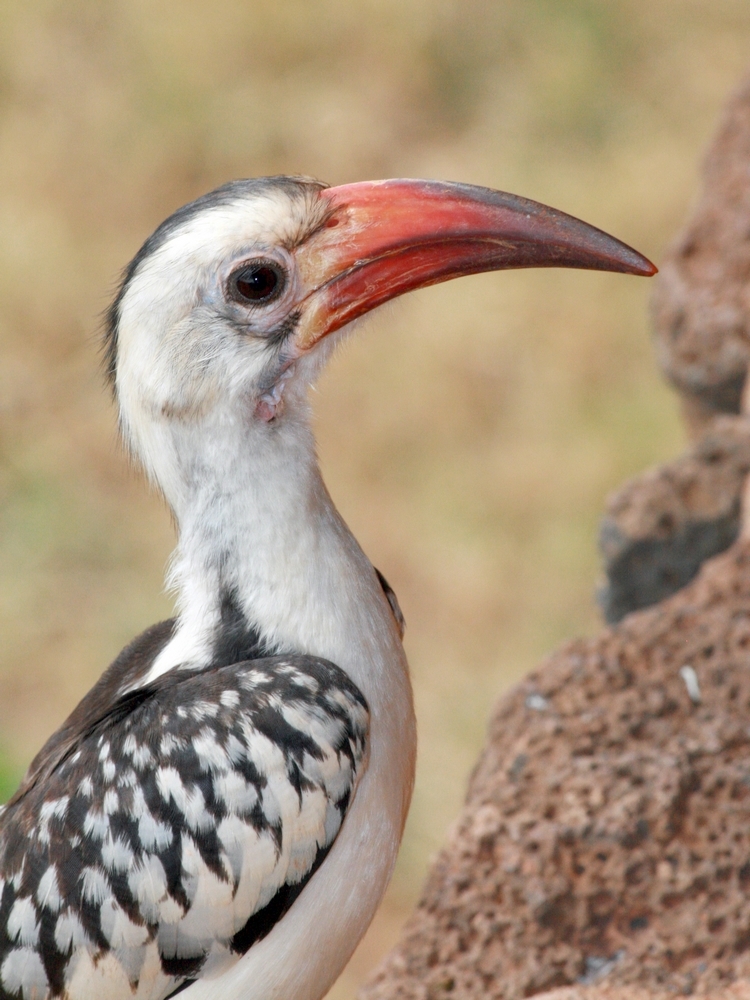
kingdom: Animalia
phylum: Chordata
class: Aves
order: Bucerotiformes
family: Bucerotidae
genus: Tockus
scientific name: Tockus erythrorhynchus
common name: Northern red-billed hornbill
